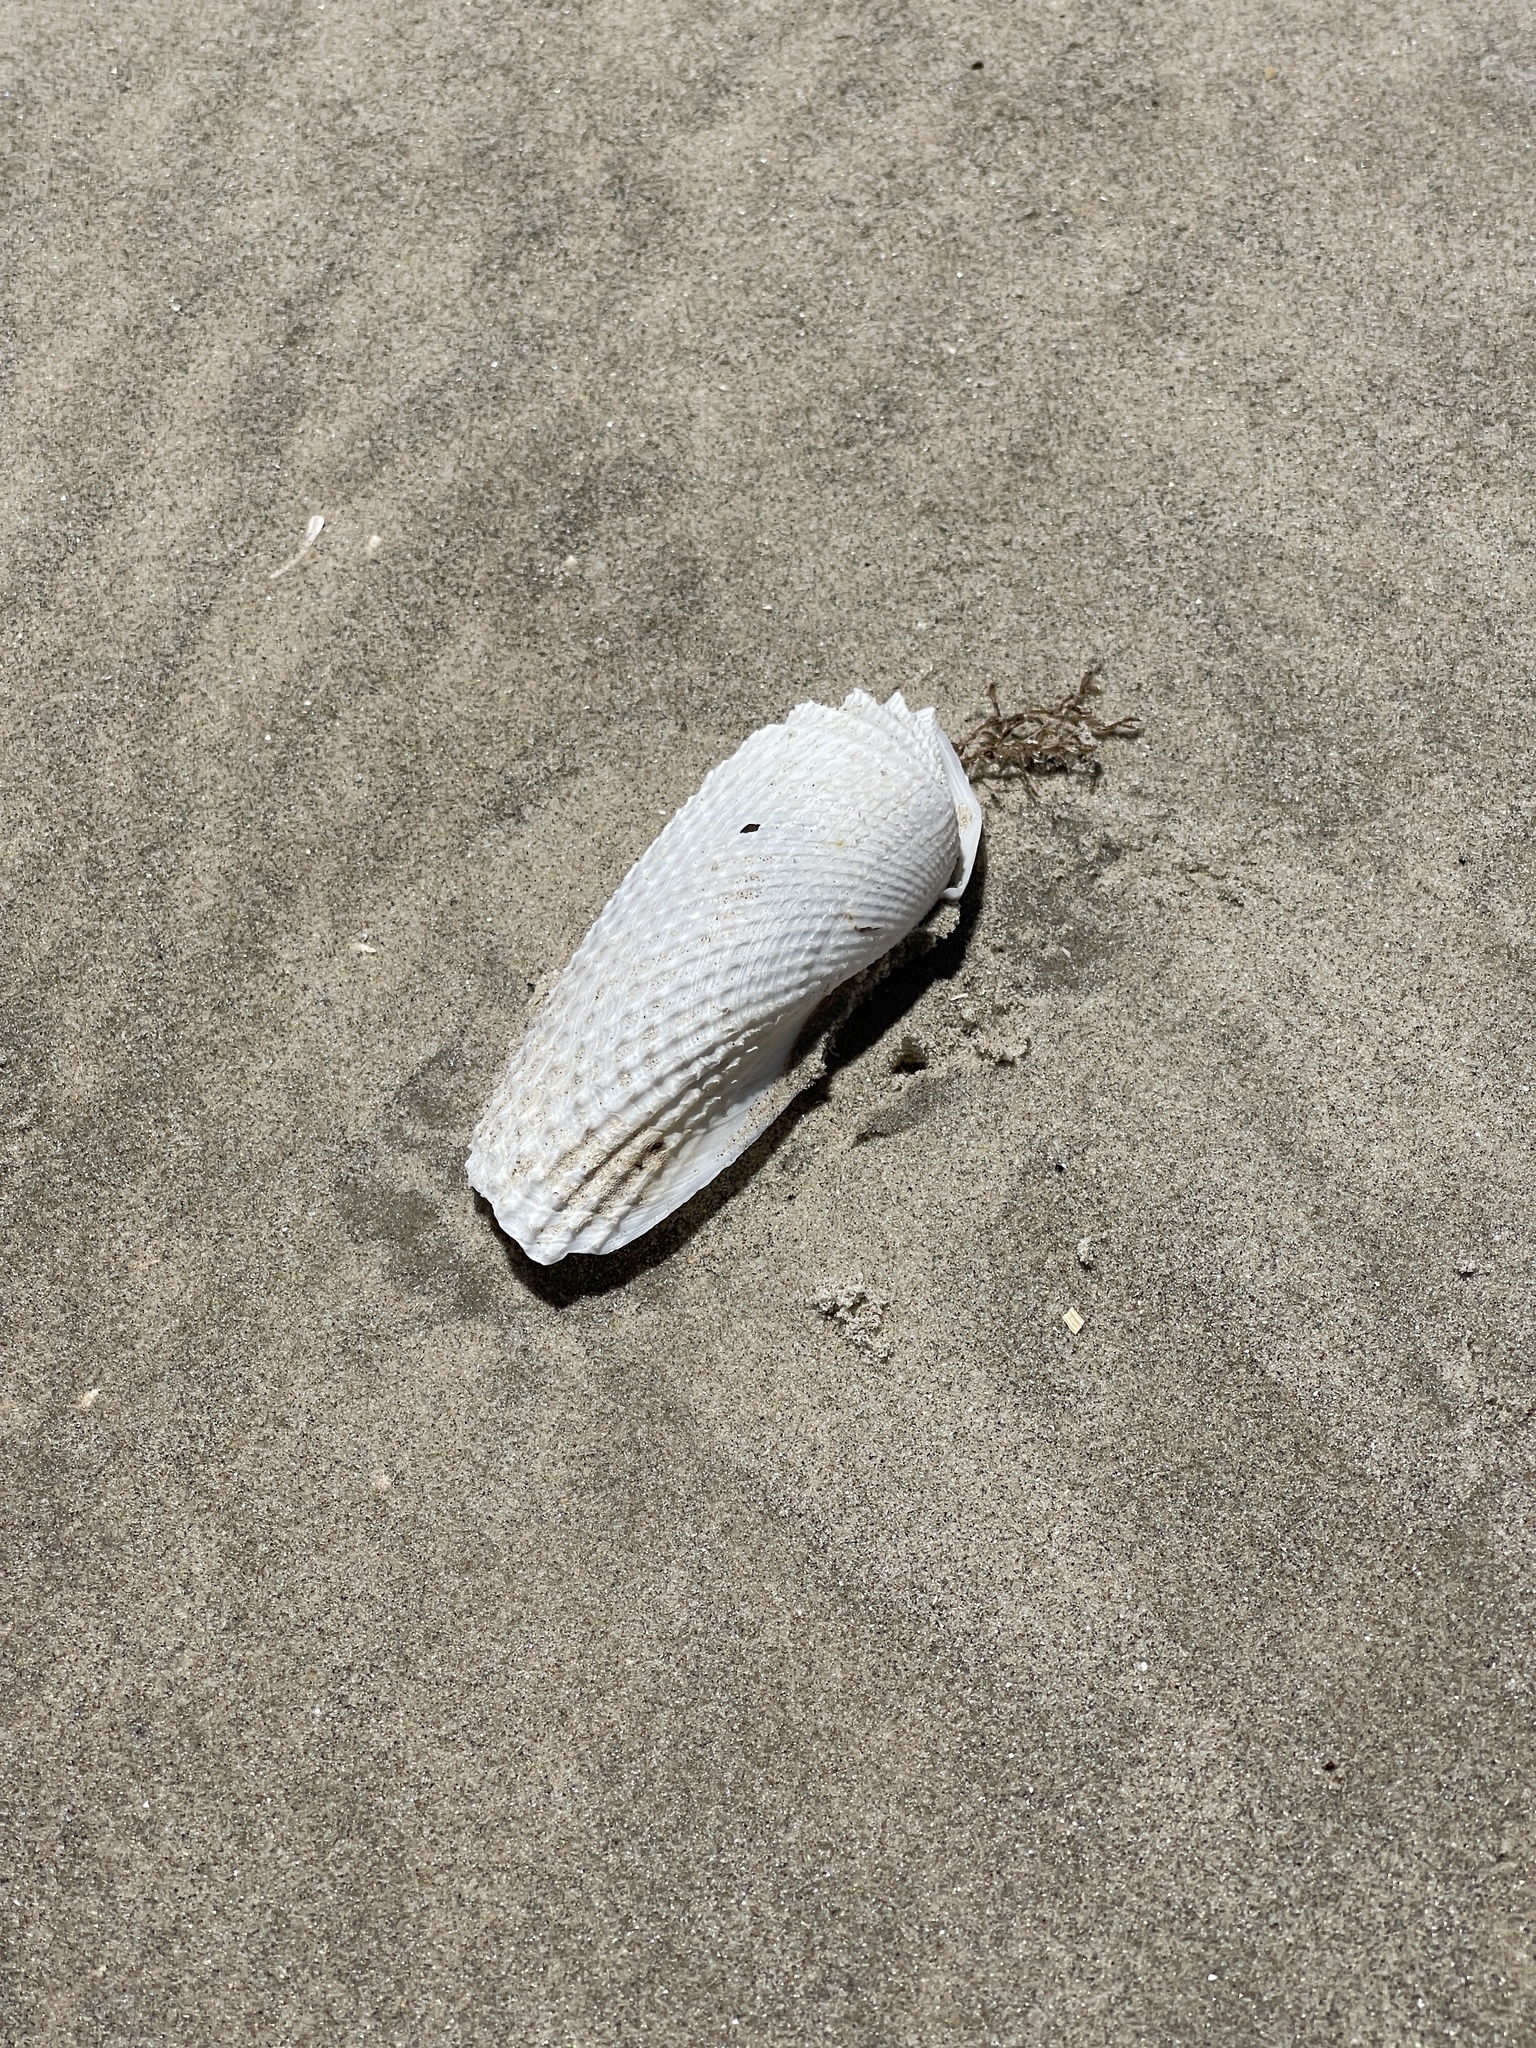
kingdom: Animalia
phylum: Mollusca
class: Bivalvia
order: Myida
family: Pholadidae
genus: Cyrtopleura
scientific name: Cyrtopleura costata
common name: Angel wing
